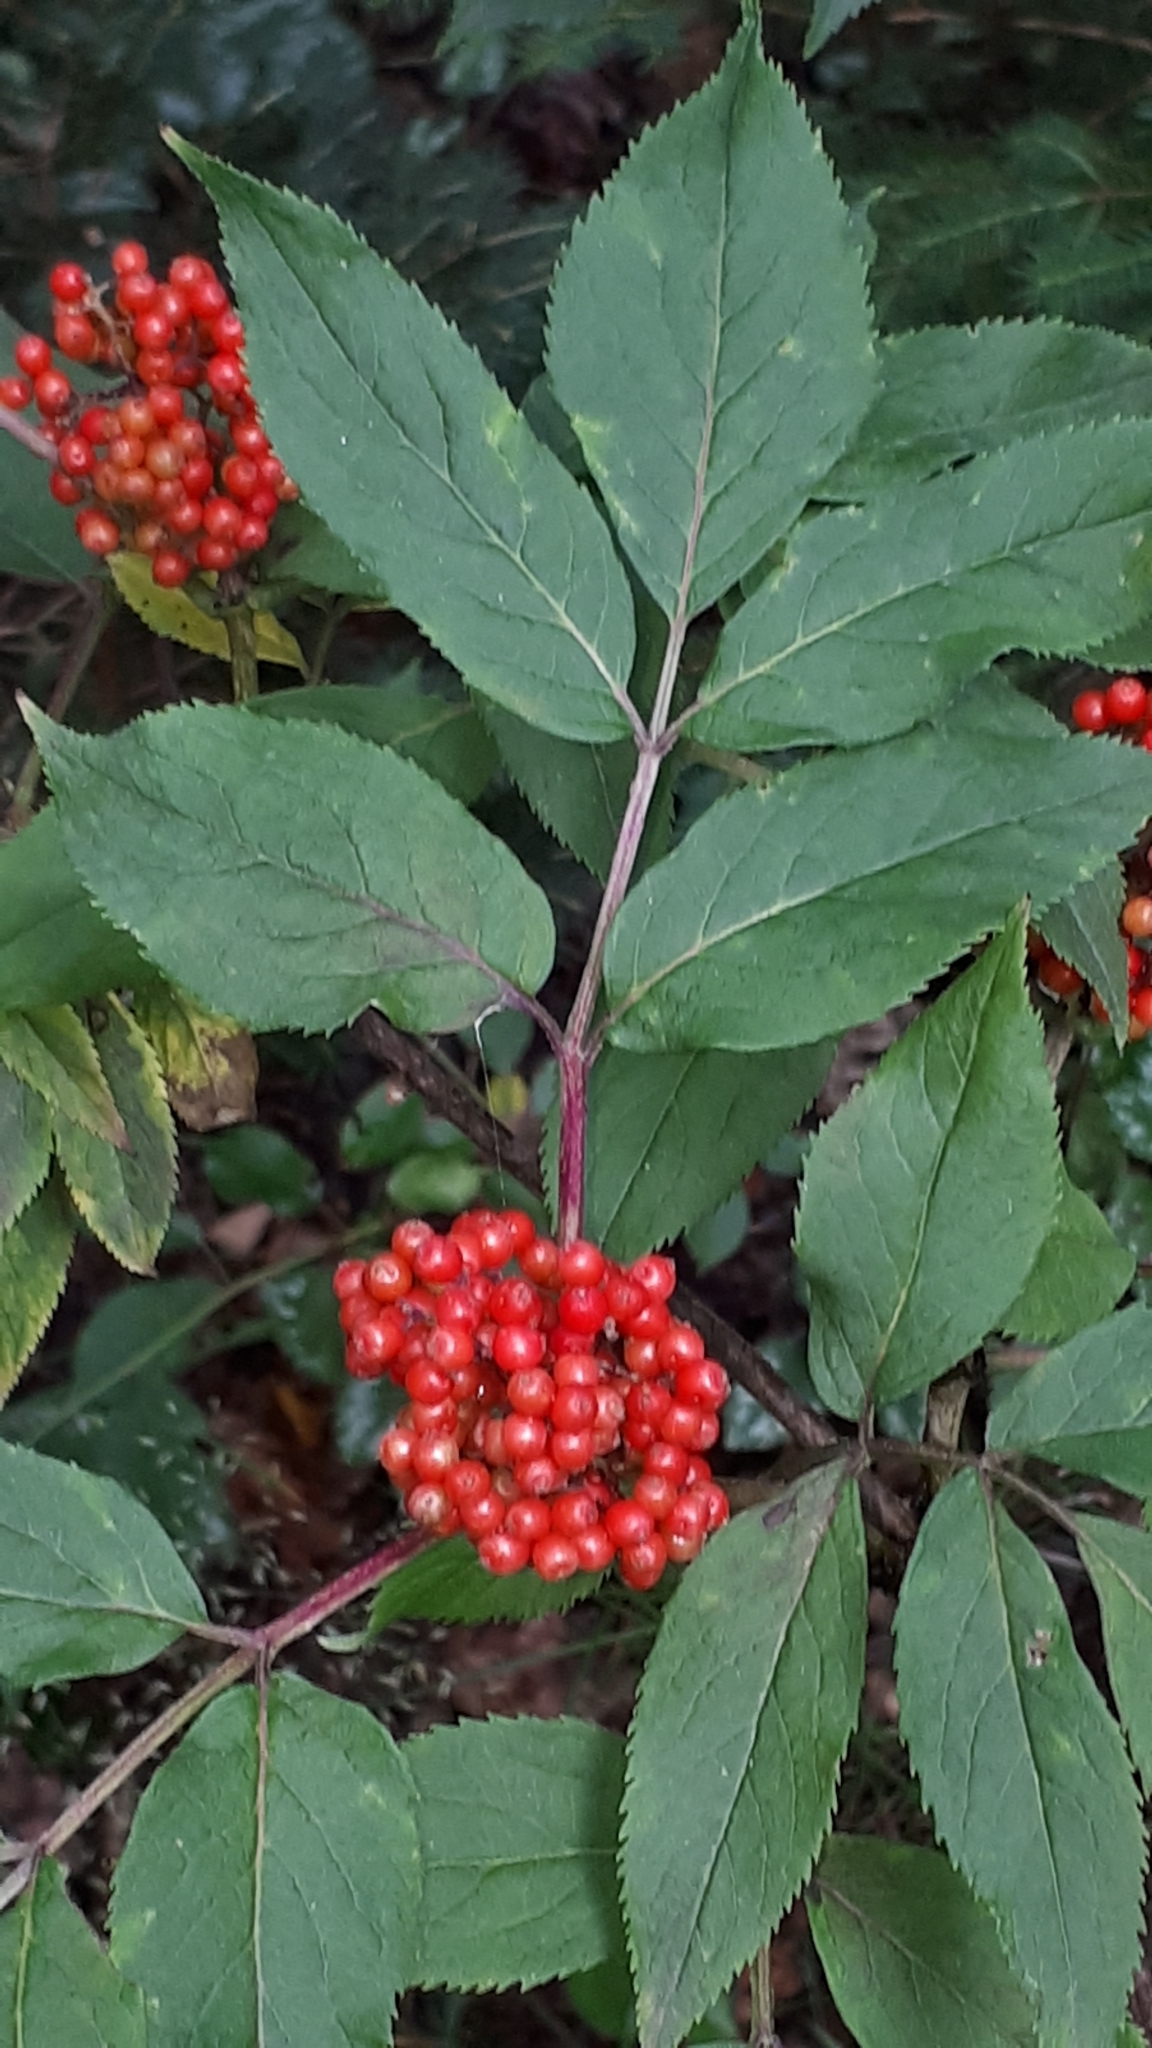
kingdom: Plantae
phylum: Tracheophyta
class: Magnoliopsida
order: Dipsacales
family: Viburnaceae
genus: Sambucus
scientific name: Sambucus racemosa
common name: Red-berried elder
